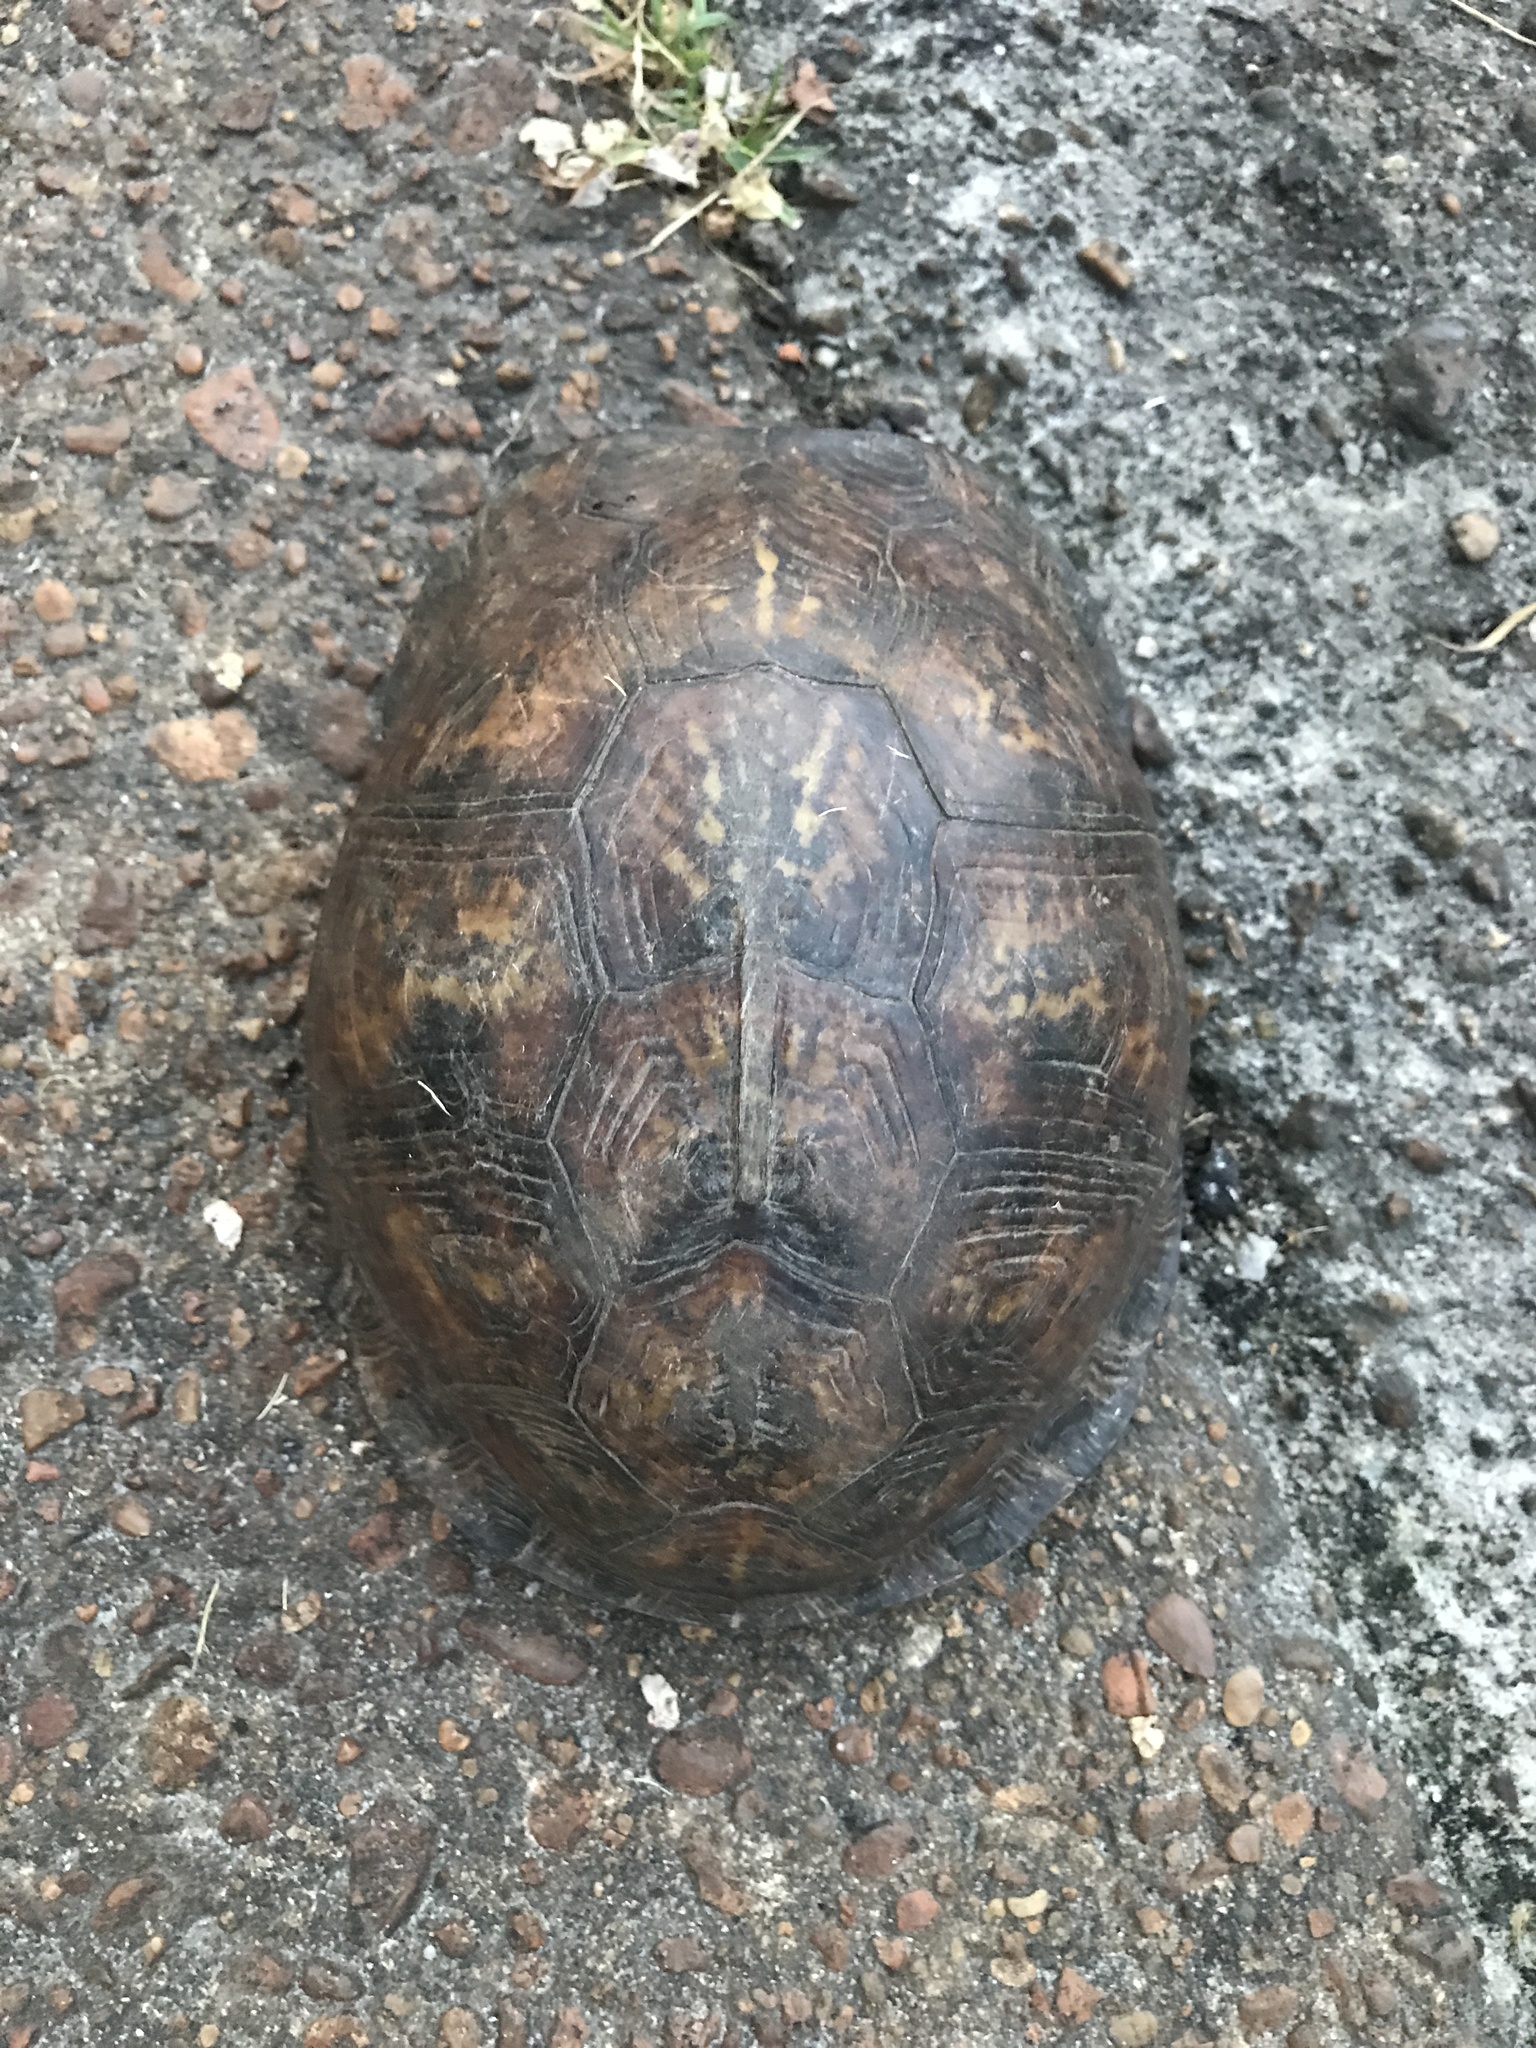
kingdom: Animalia
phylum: Chordata
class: Testudines
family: Emydidae
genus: Terrapene
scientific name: Terrapene carolina
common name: Common box turtle
